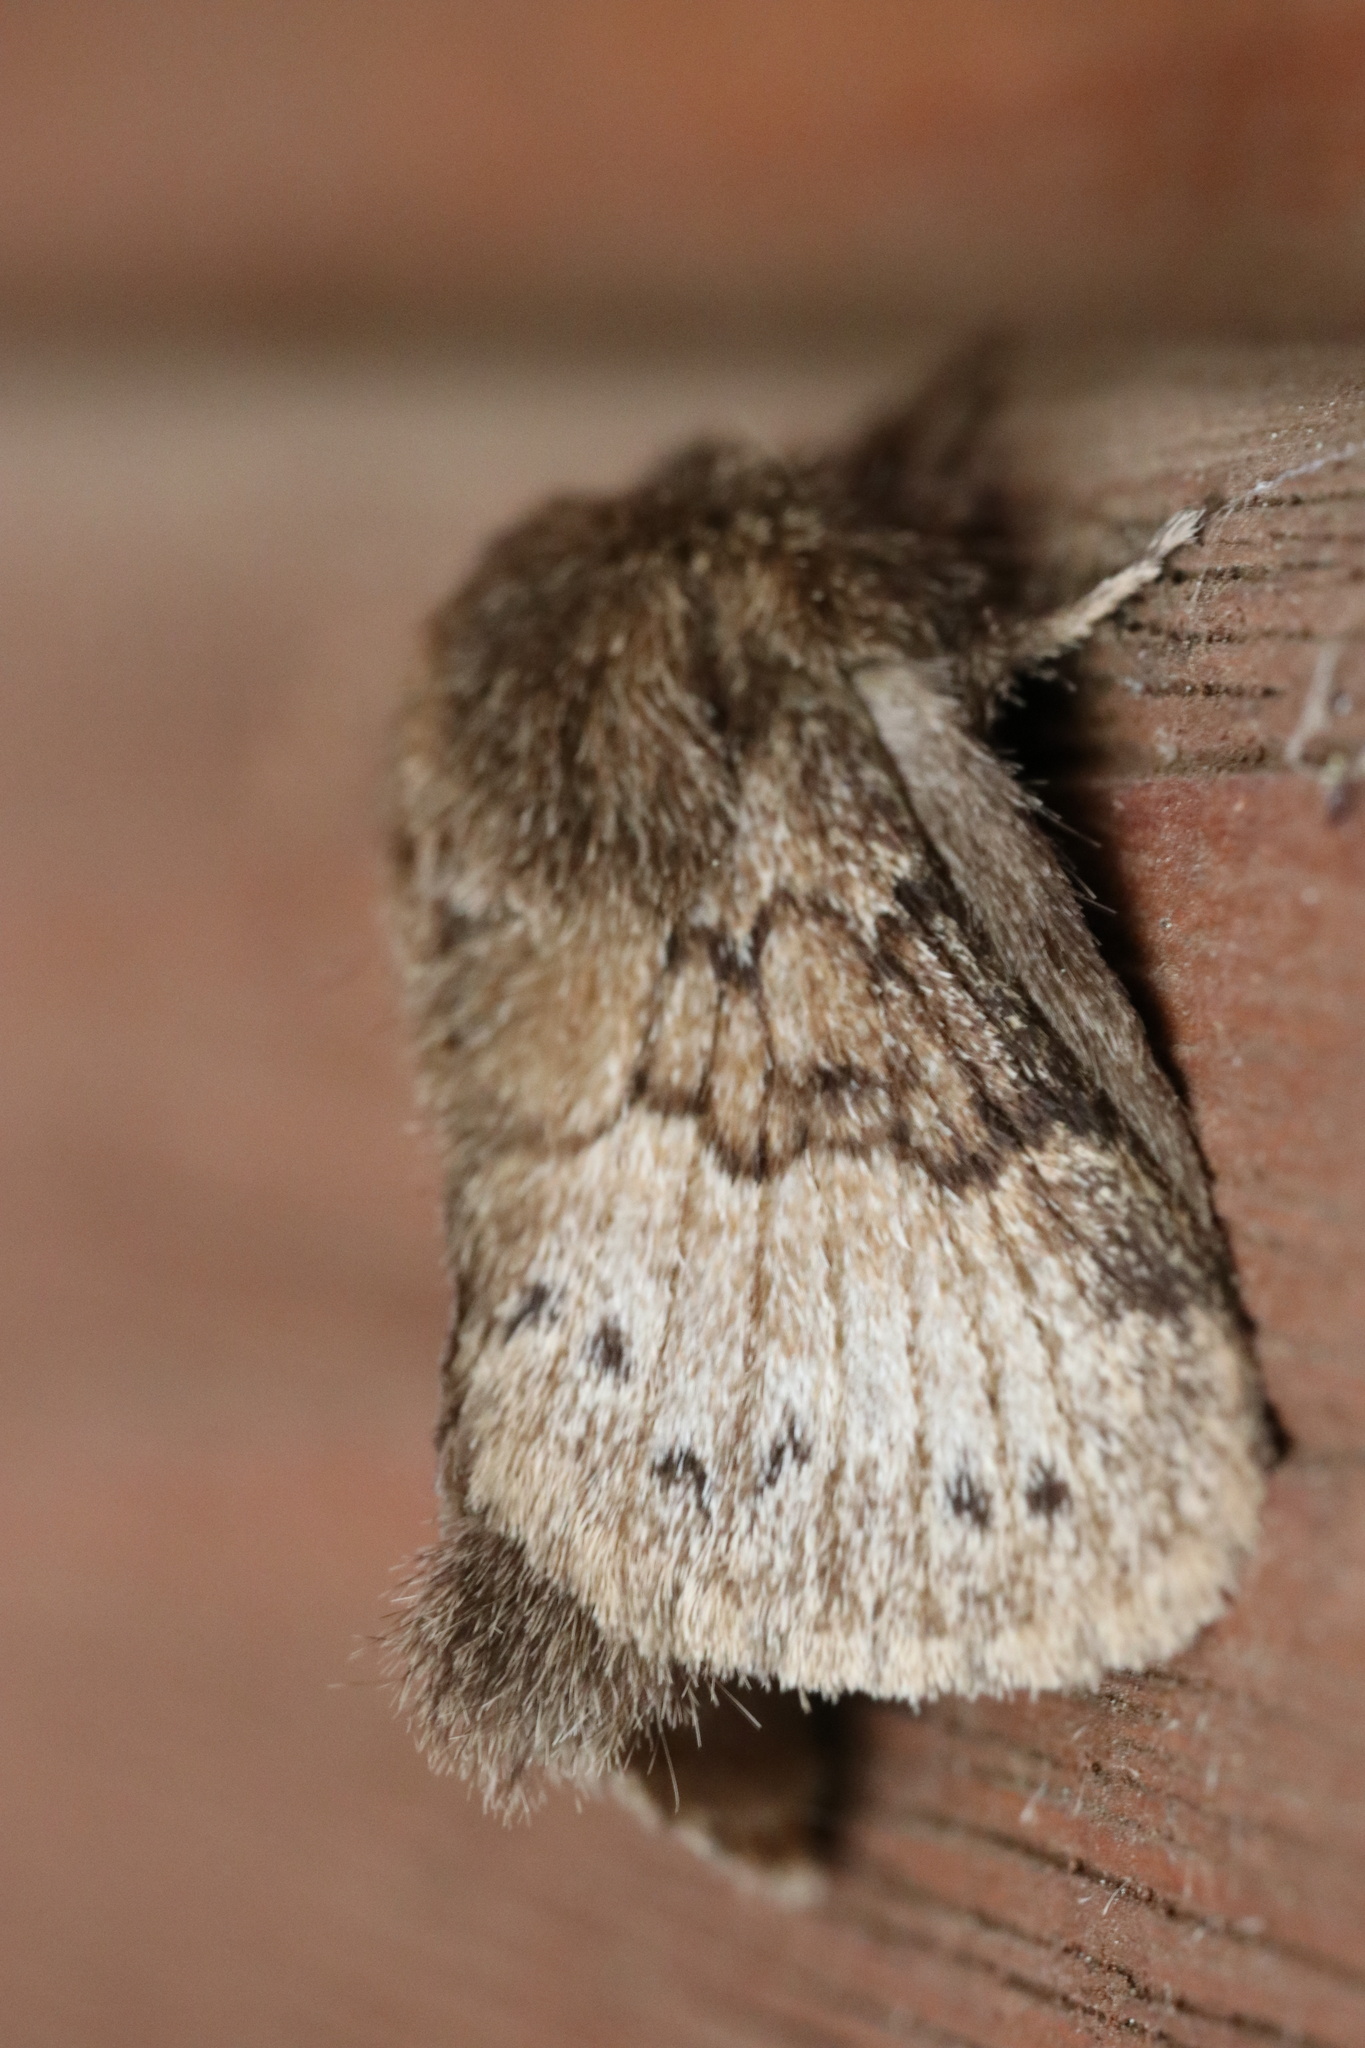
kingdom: Animalia
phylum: Arthropoda
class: Insecta
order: Lepidoptera
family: Lasiocampidae
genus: Macromphalia
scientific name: Macromphalia ancilla
